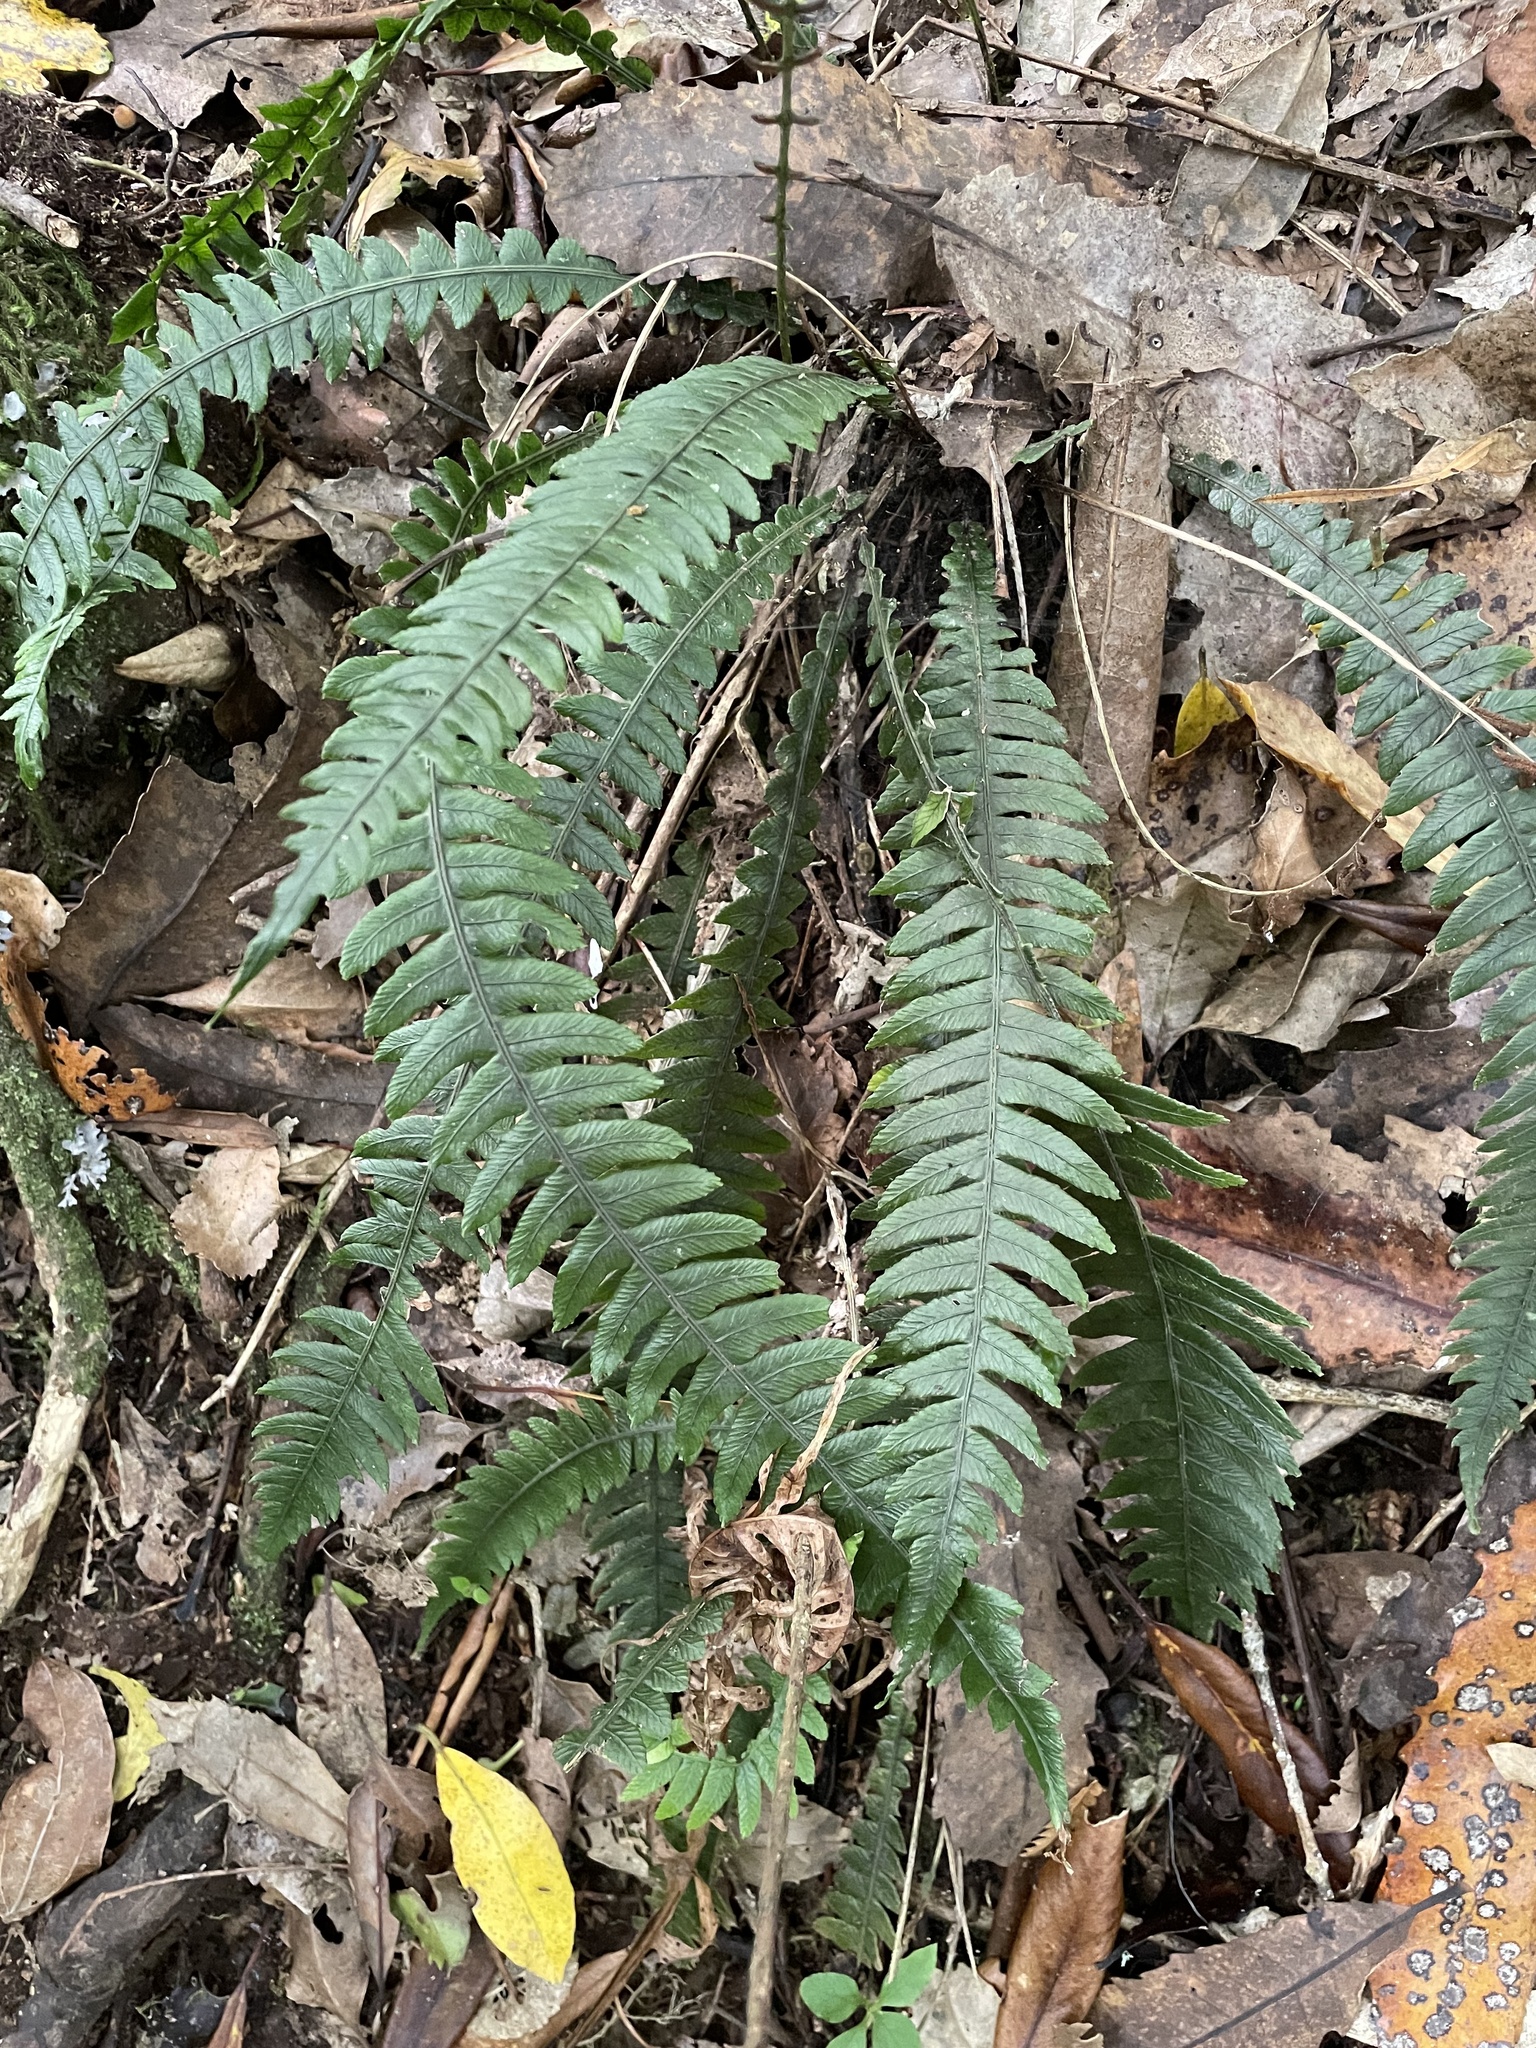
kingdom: Plantae
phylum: Tracheophyta
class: Polypodiopsida
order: Polypodiales
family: Blechnaceae
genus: Austroblechnum
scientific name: Austroblechnum lanceolatum
